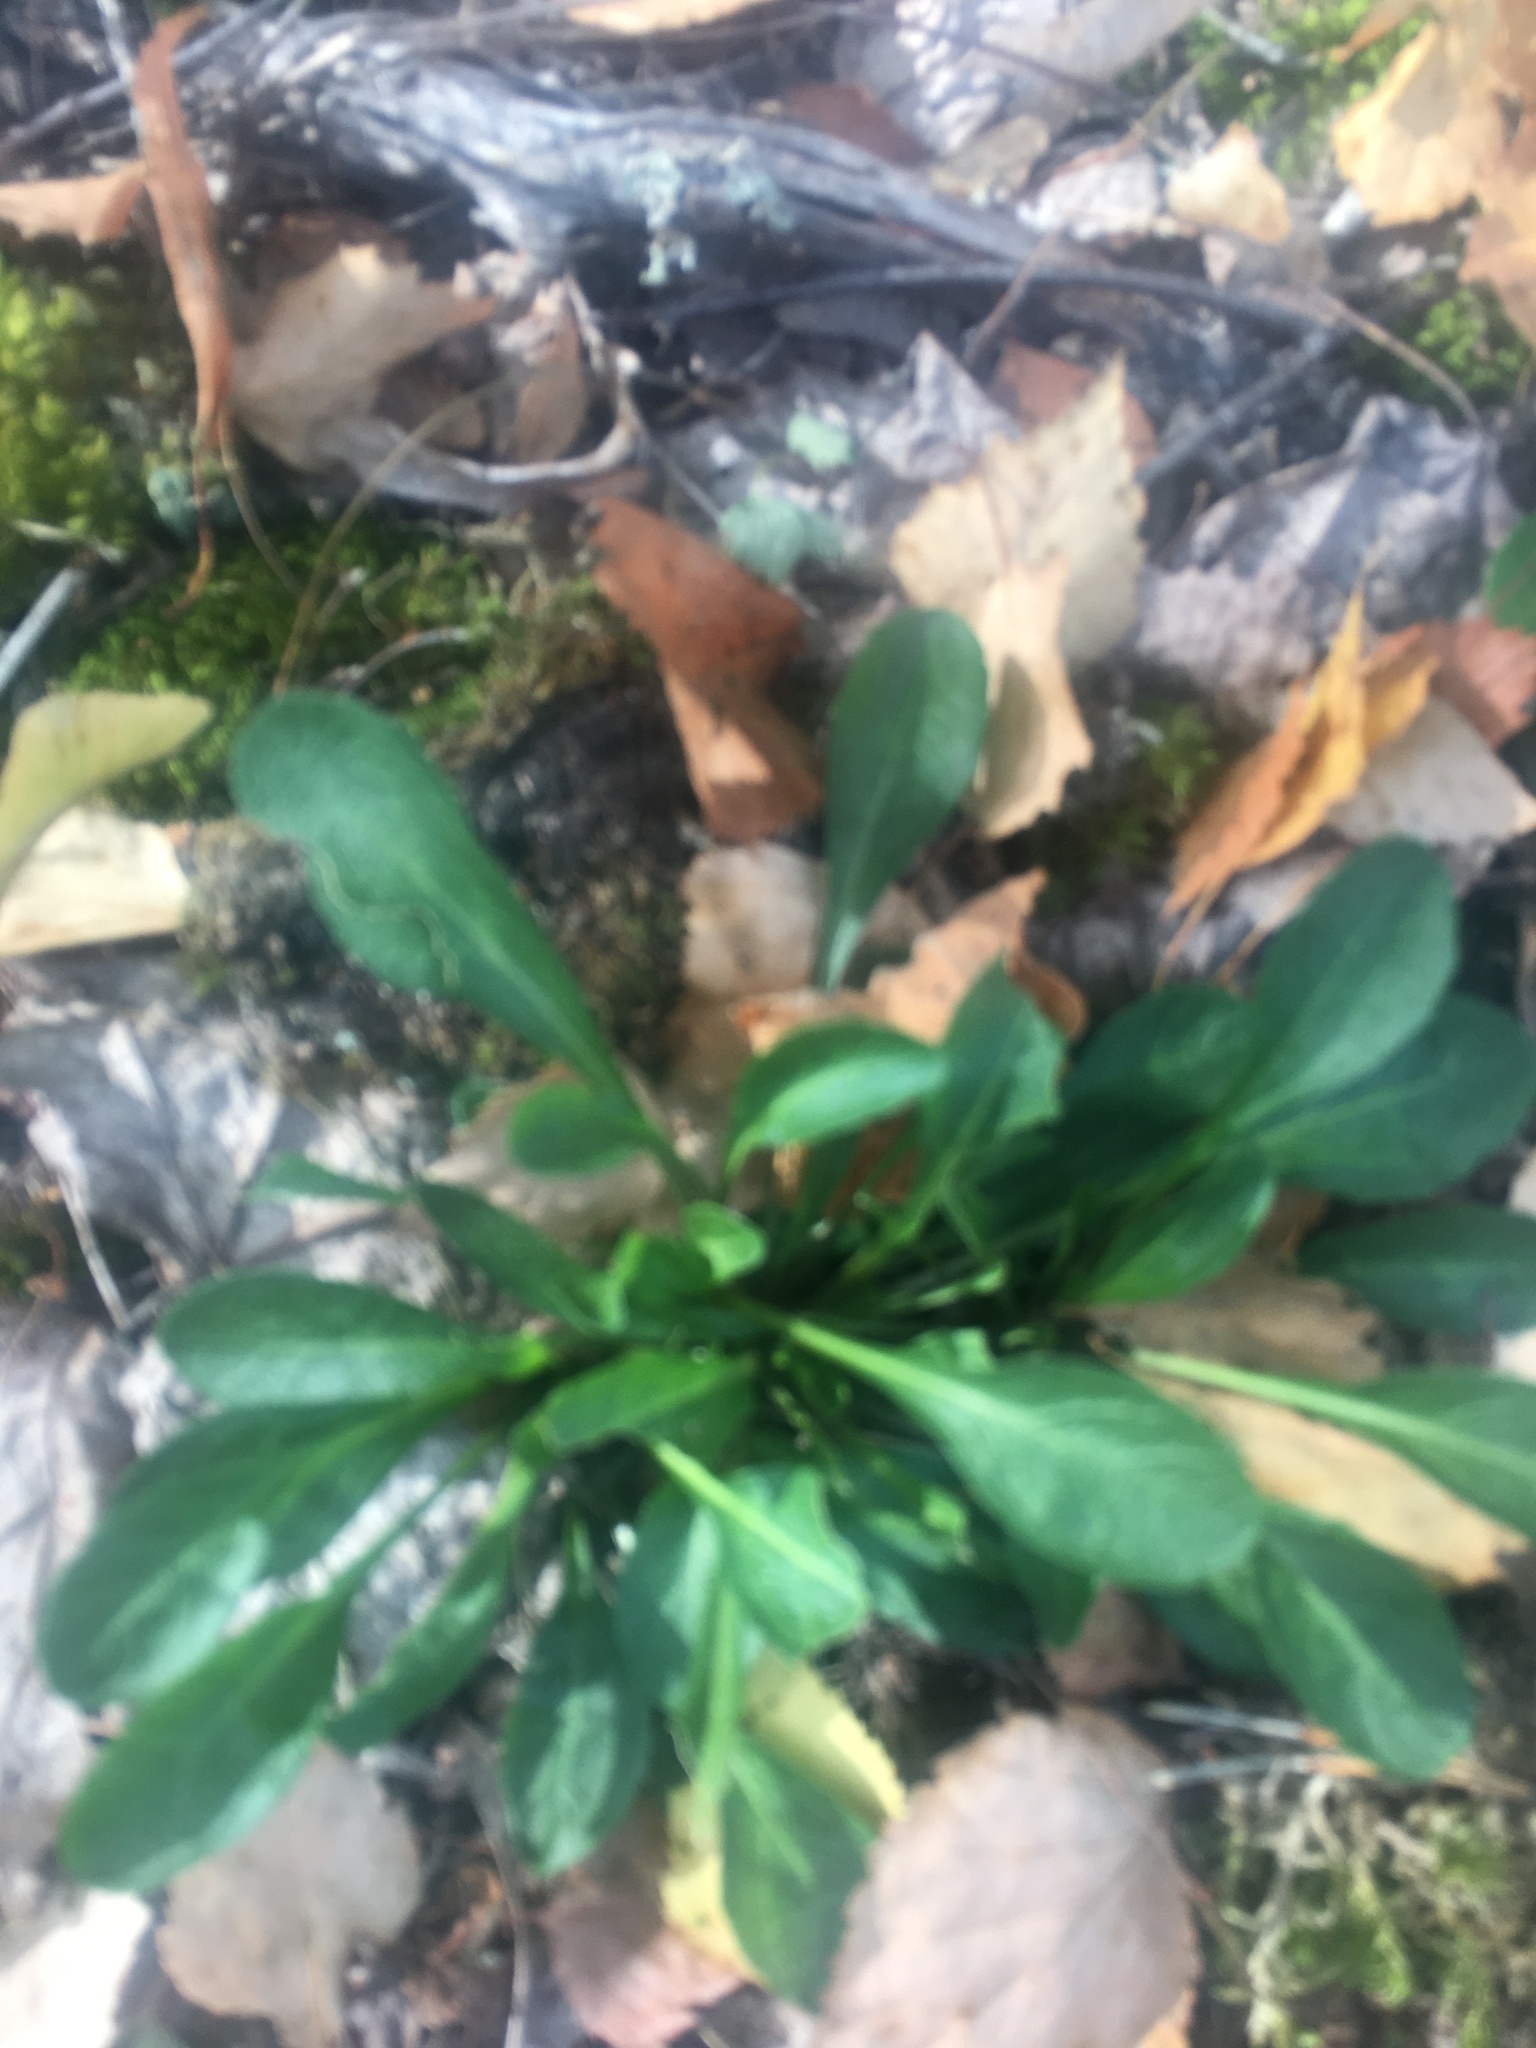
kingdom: Plantae
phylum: Tracheophyta
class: Magnoliopsida
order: Asterales
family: Asteraceae
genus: Solidago
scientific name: Solidago virgaurea
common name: Goldenrod
